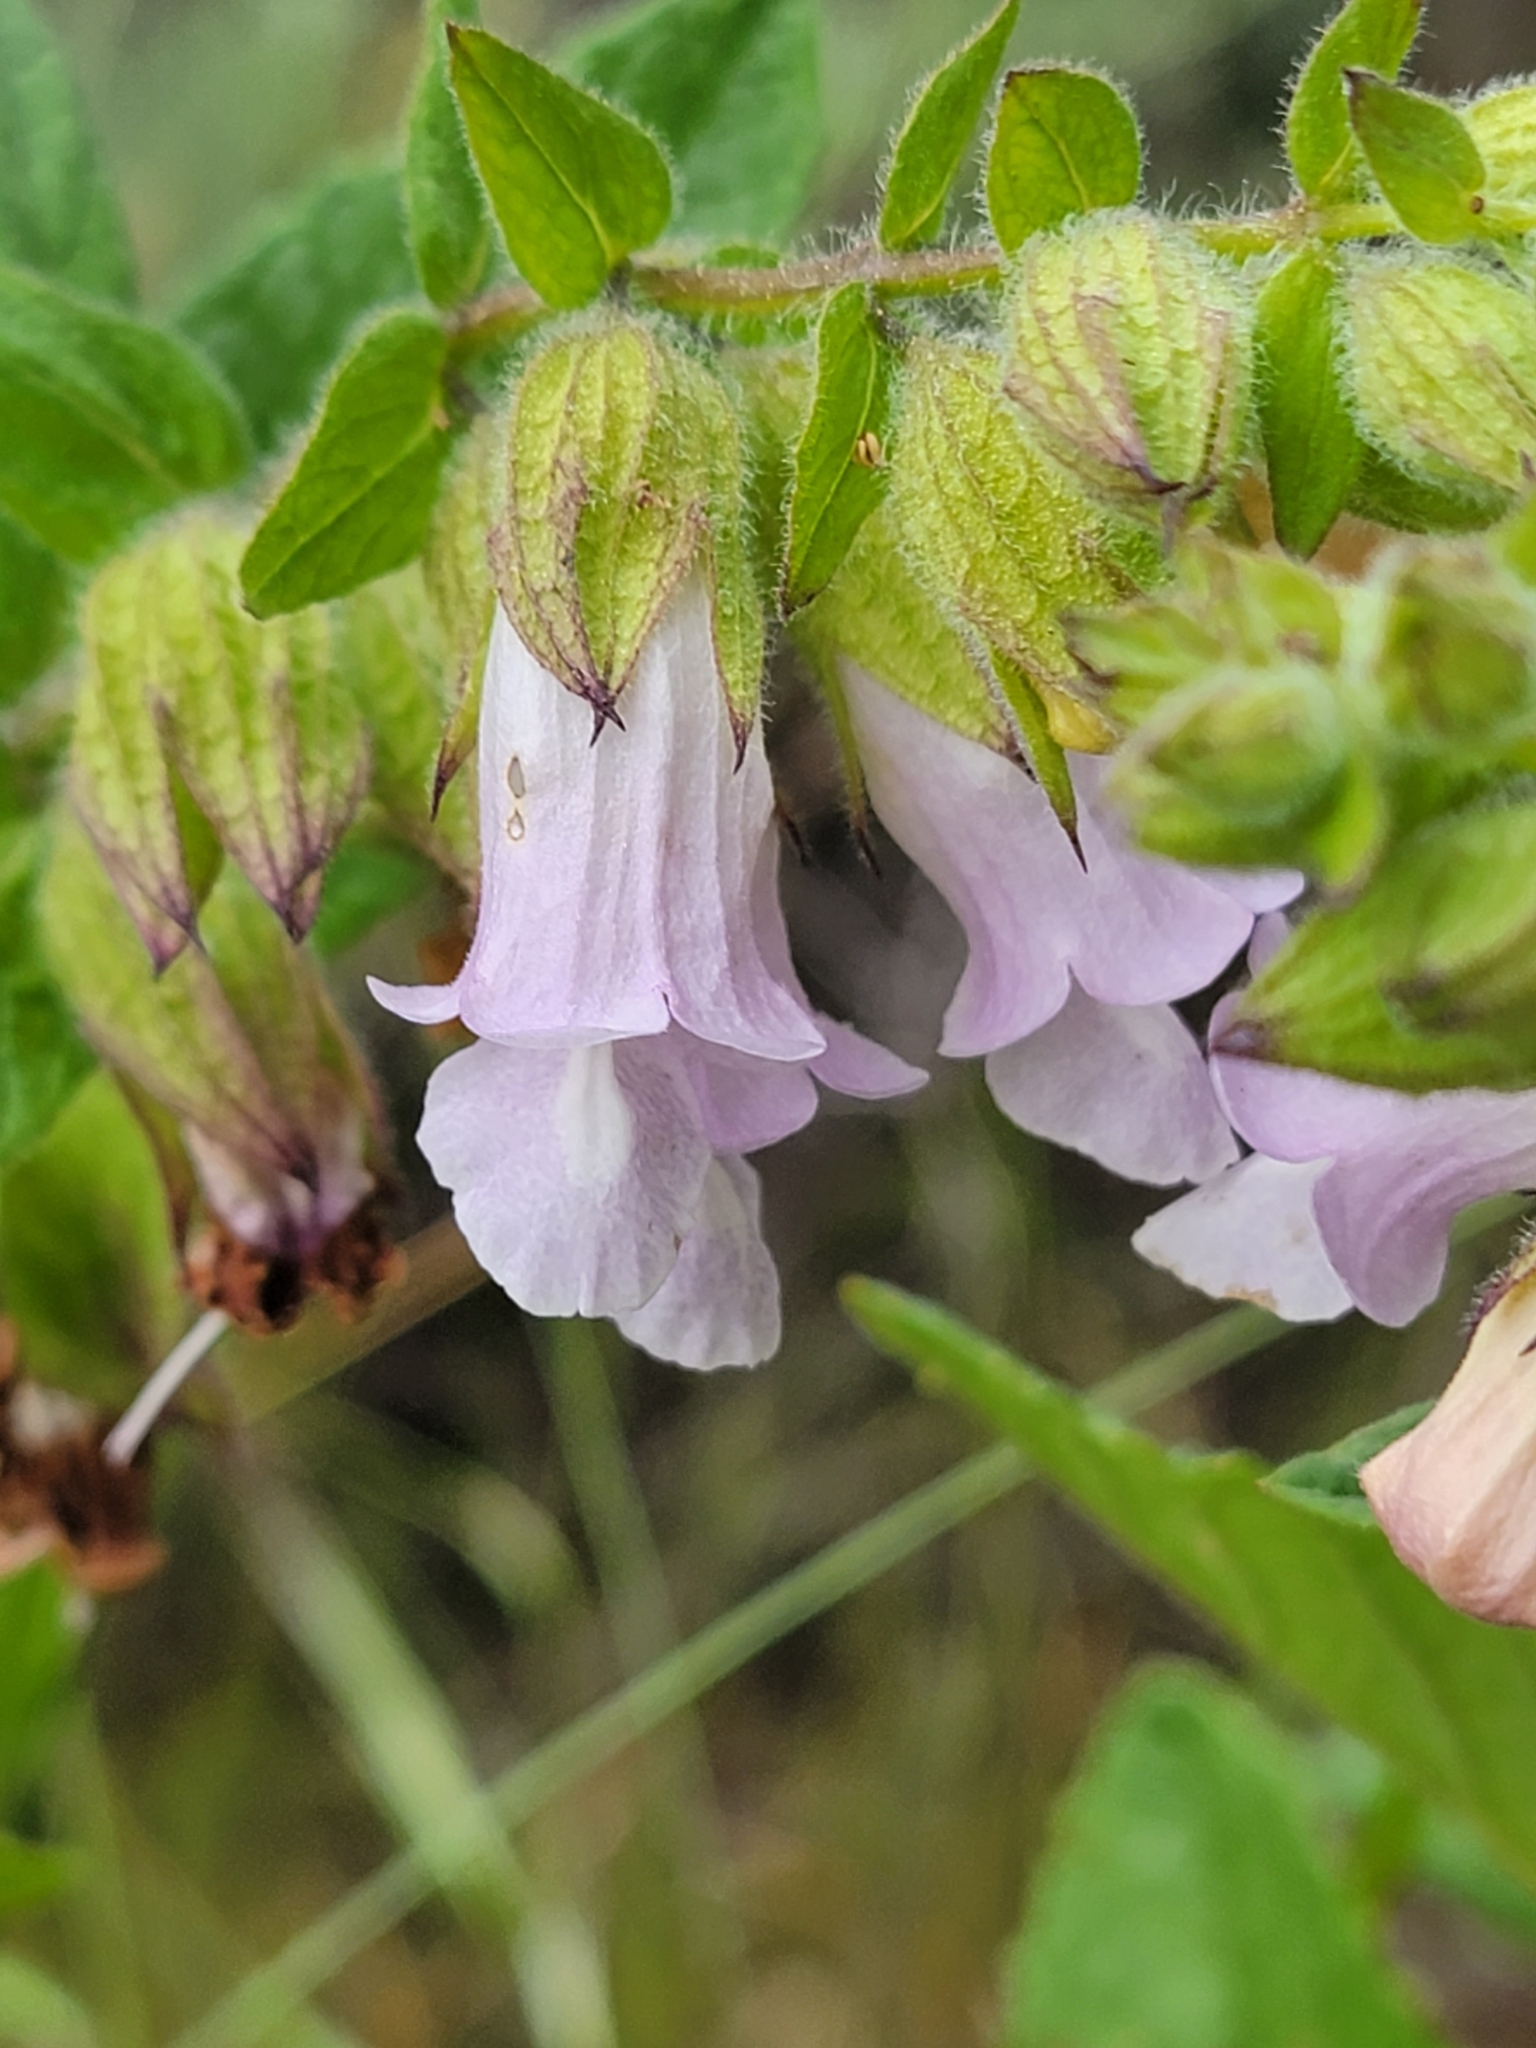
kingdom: Plantae
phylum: Tracheophyta
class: Magnoliopsida
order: Lamiales
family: Lamiaceae
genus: Lepechinia
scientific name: Lepechinia calycina
